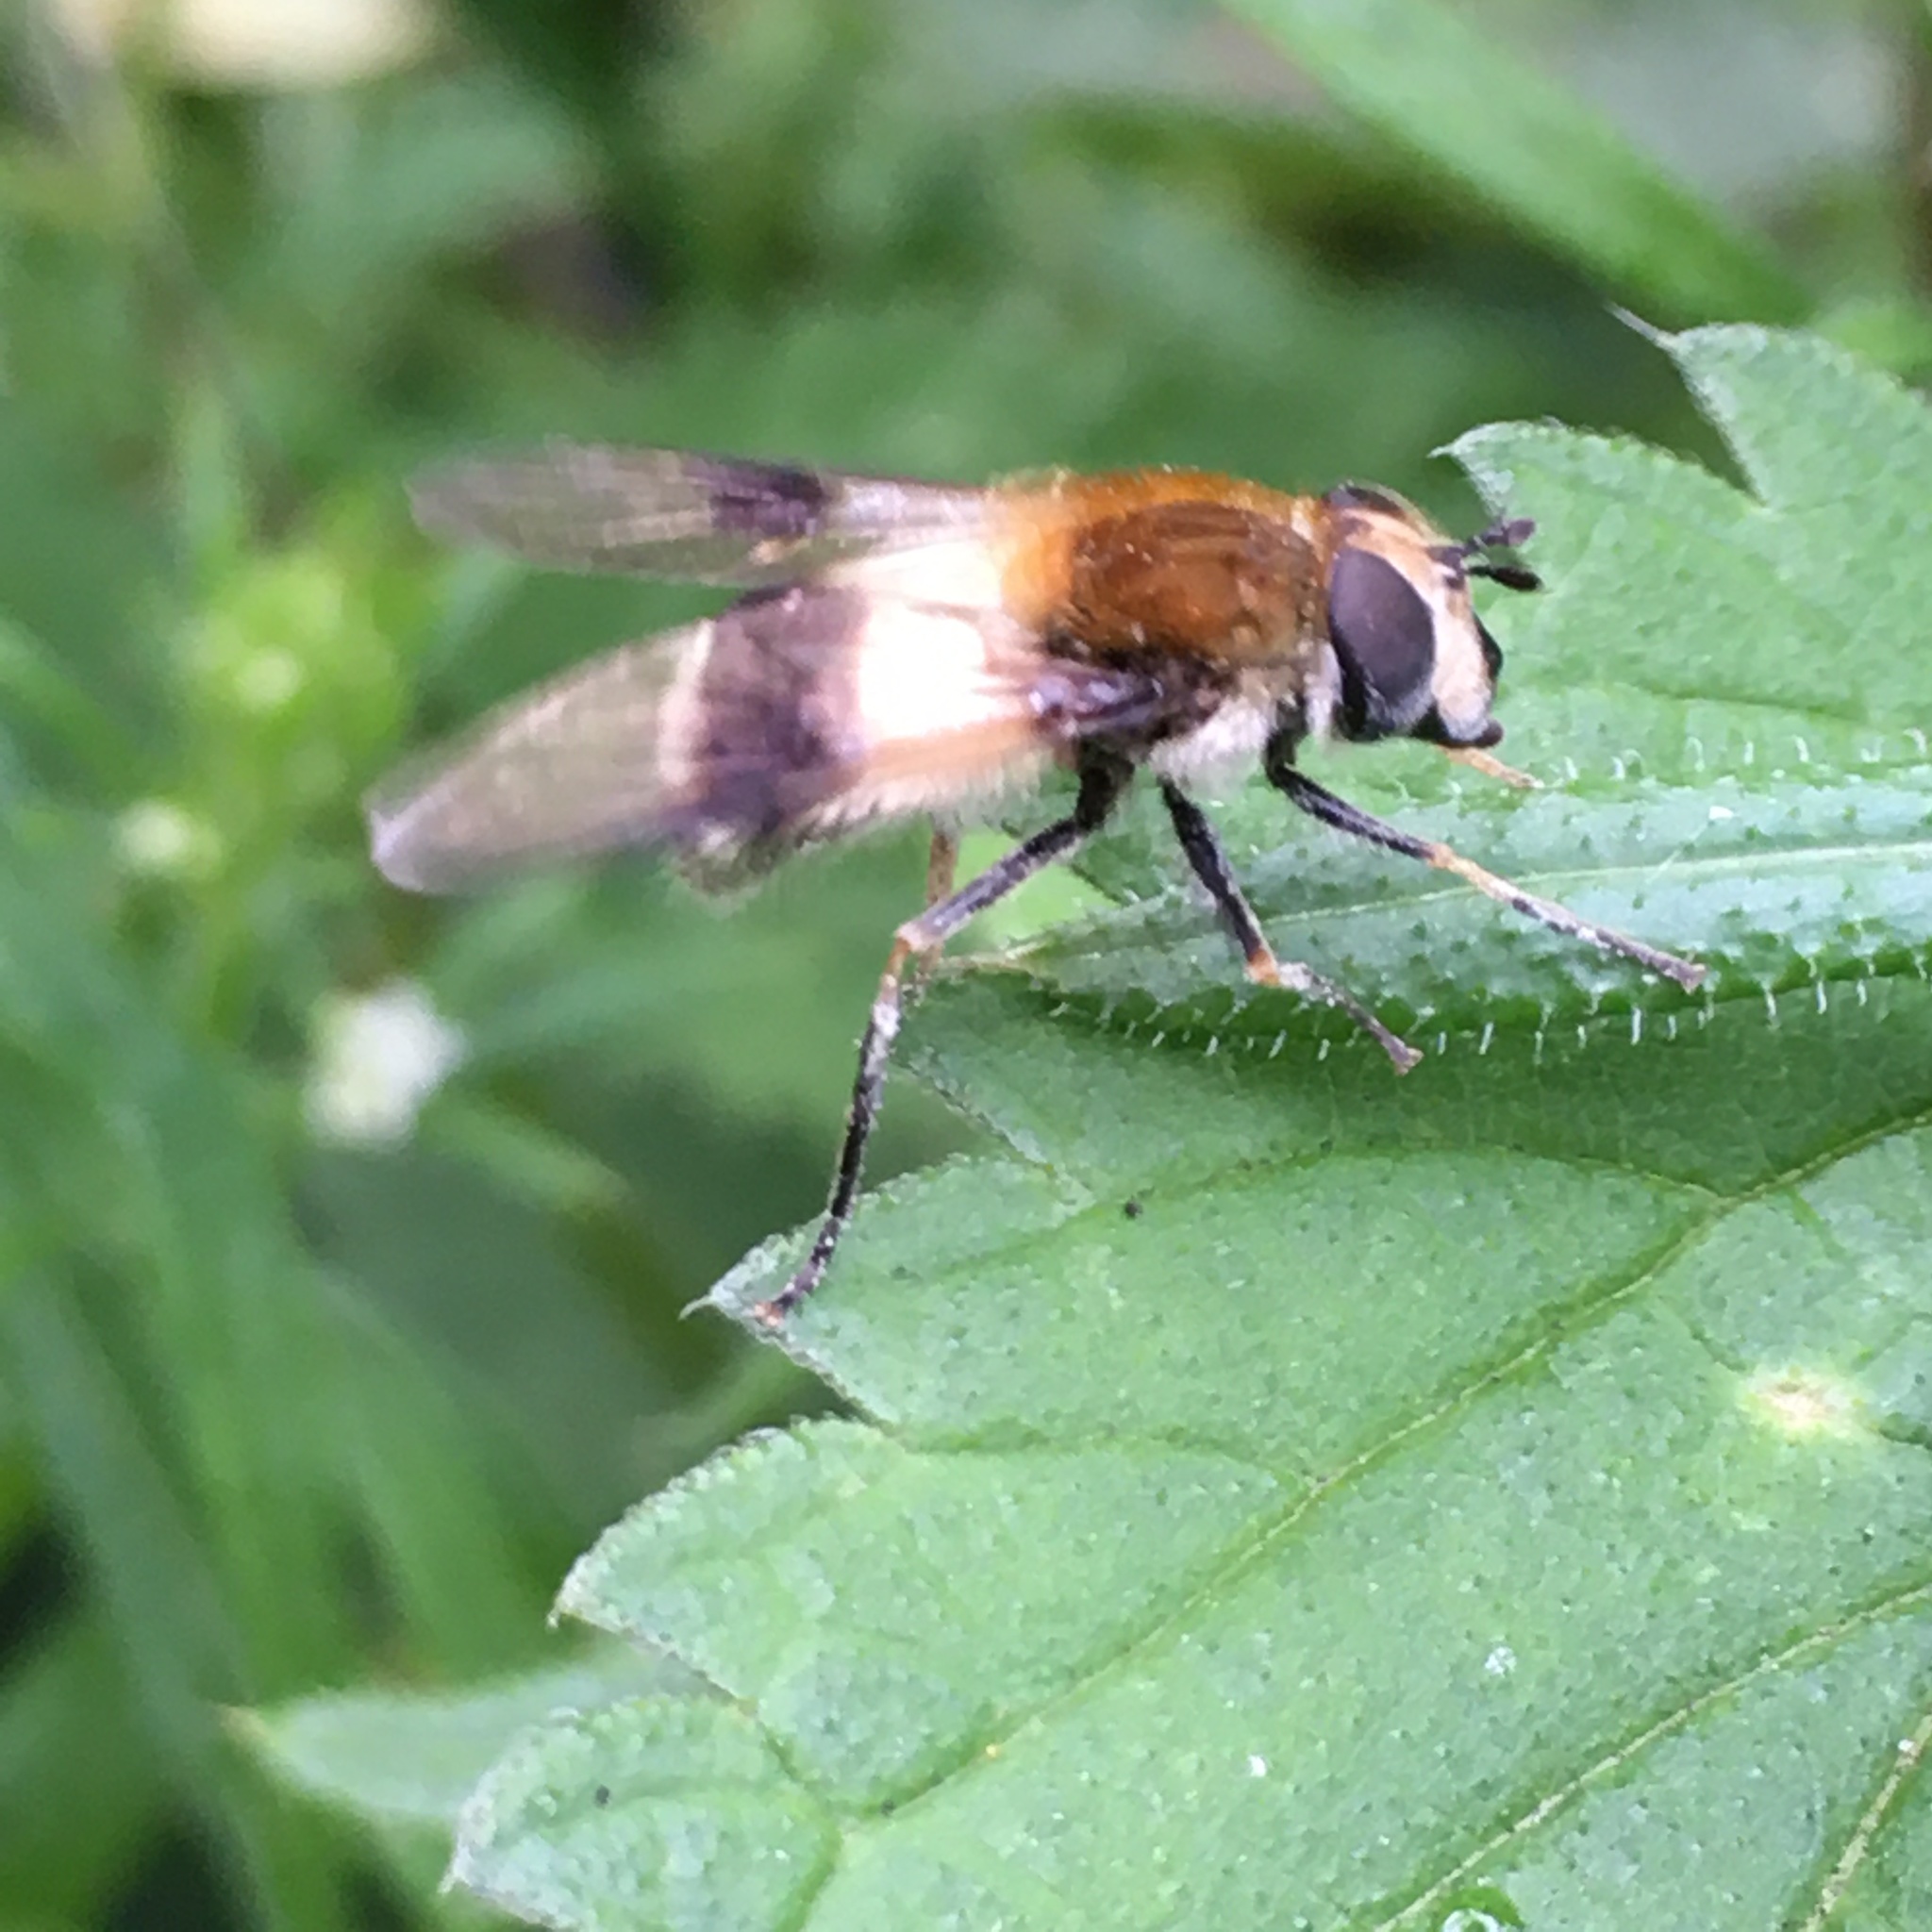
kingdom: Animalia
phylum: Arthropoda
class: Insecta
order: Diptera
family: Syrphidae
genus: Leucozona
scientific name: Leucozona lucorum
